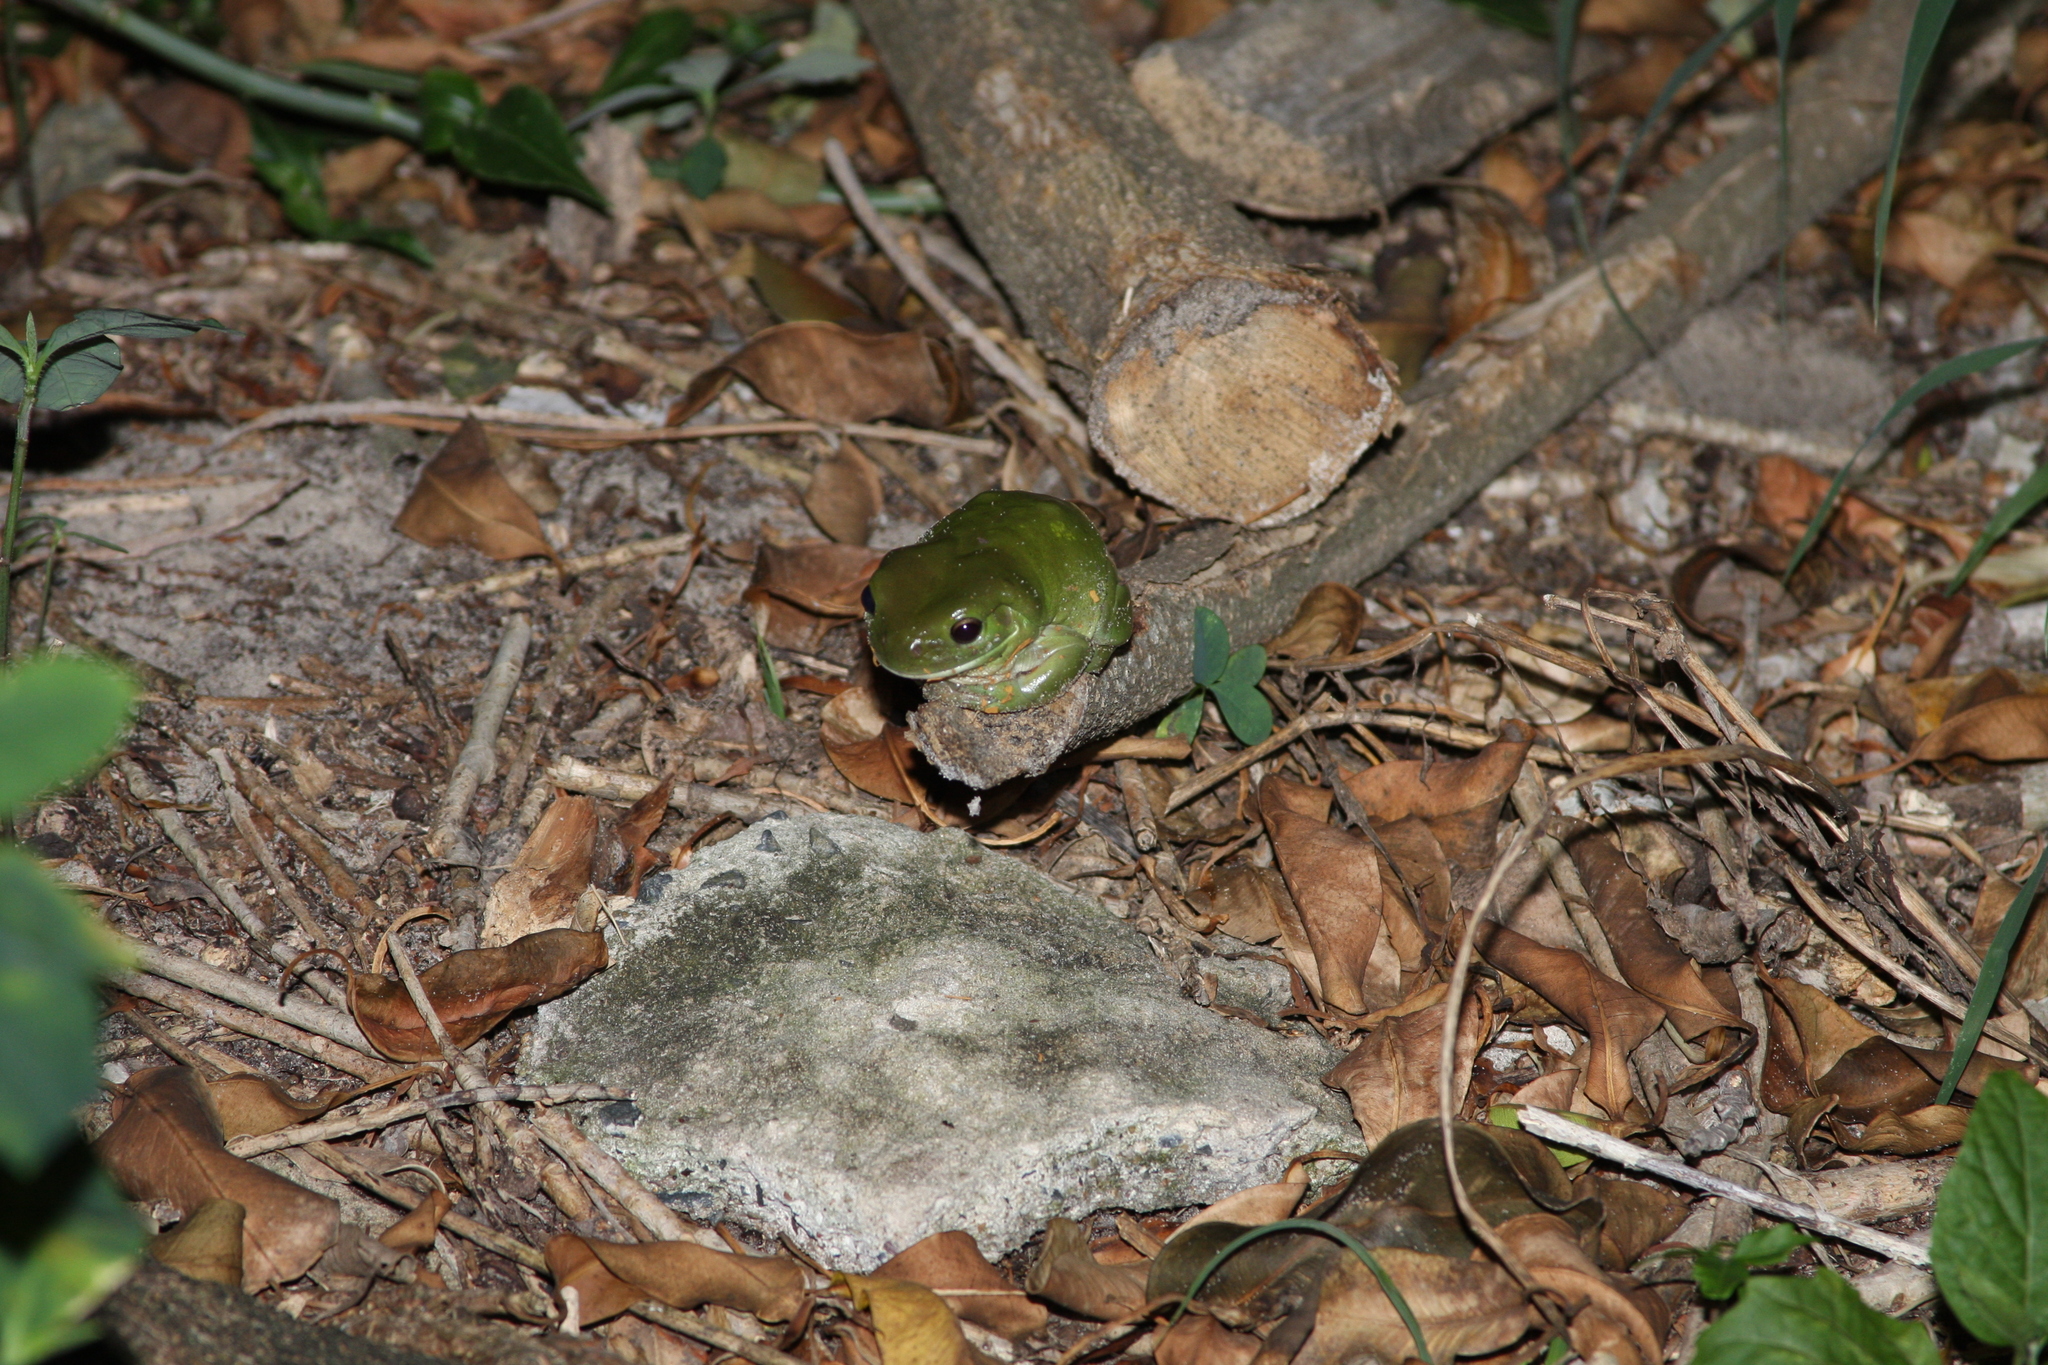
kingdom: Animalia
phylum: Chordata
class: Amphibia
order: Anura
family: Pelodryadidae
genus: Ranoidea
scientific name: Ranoidea caerulea
